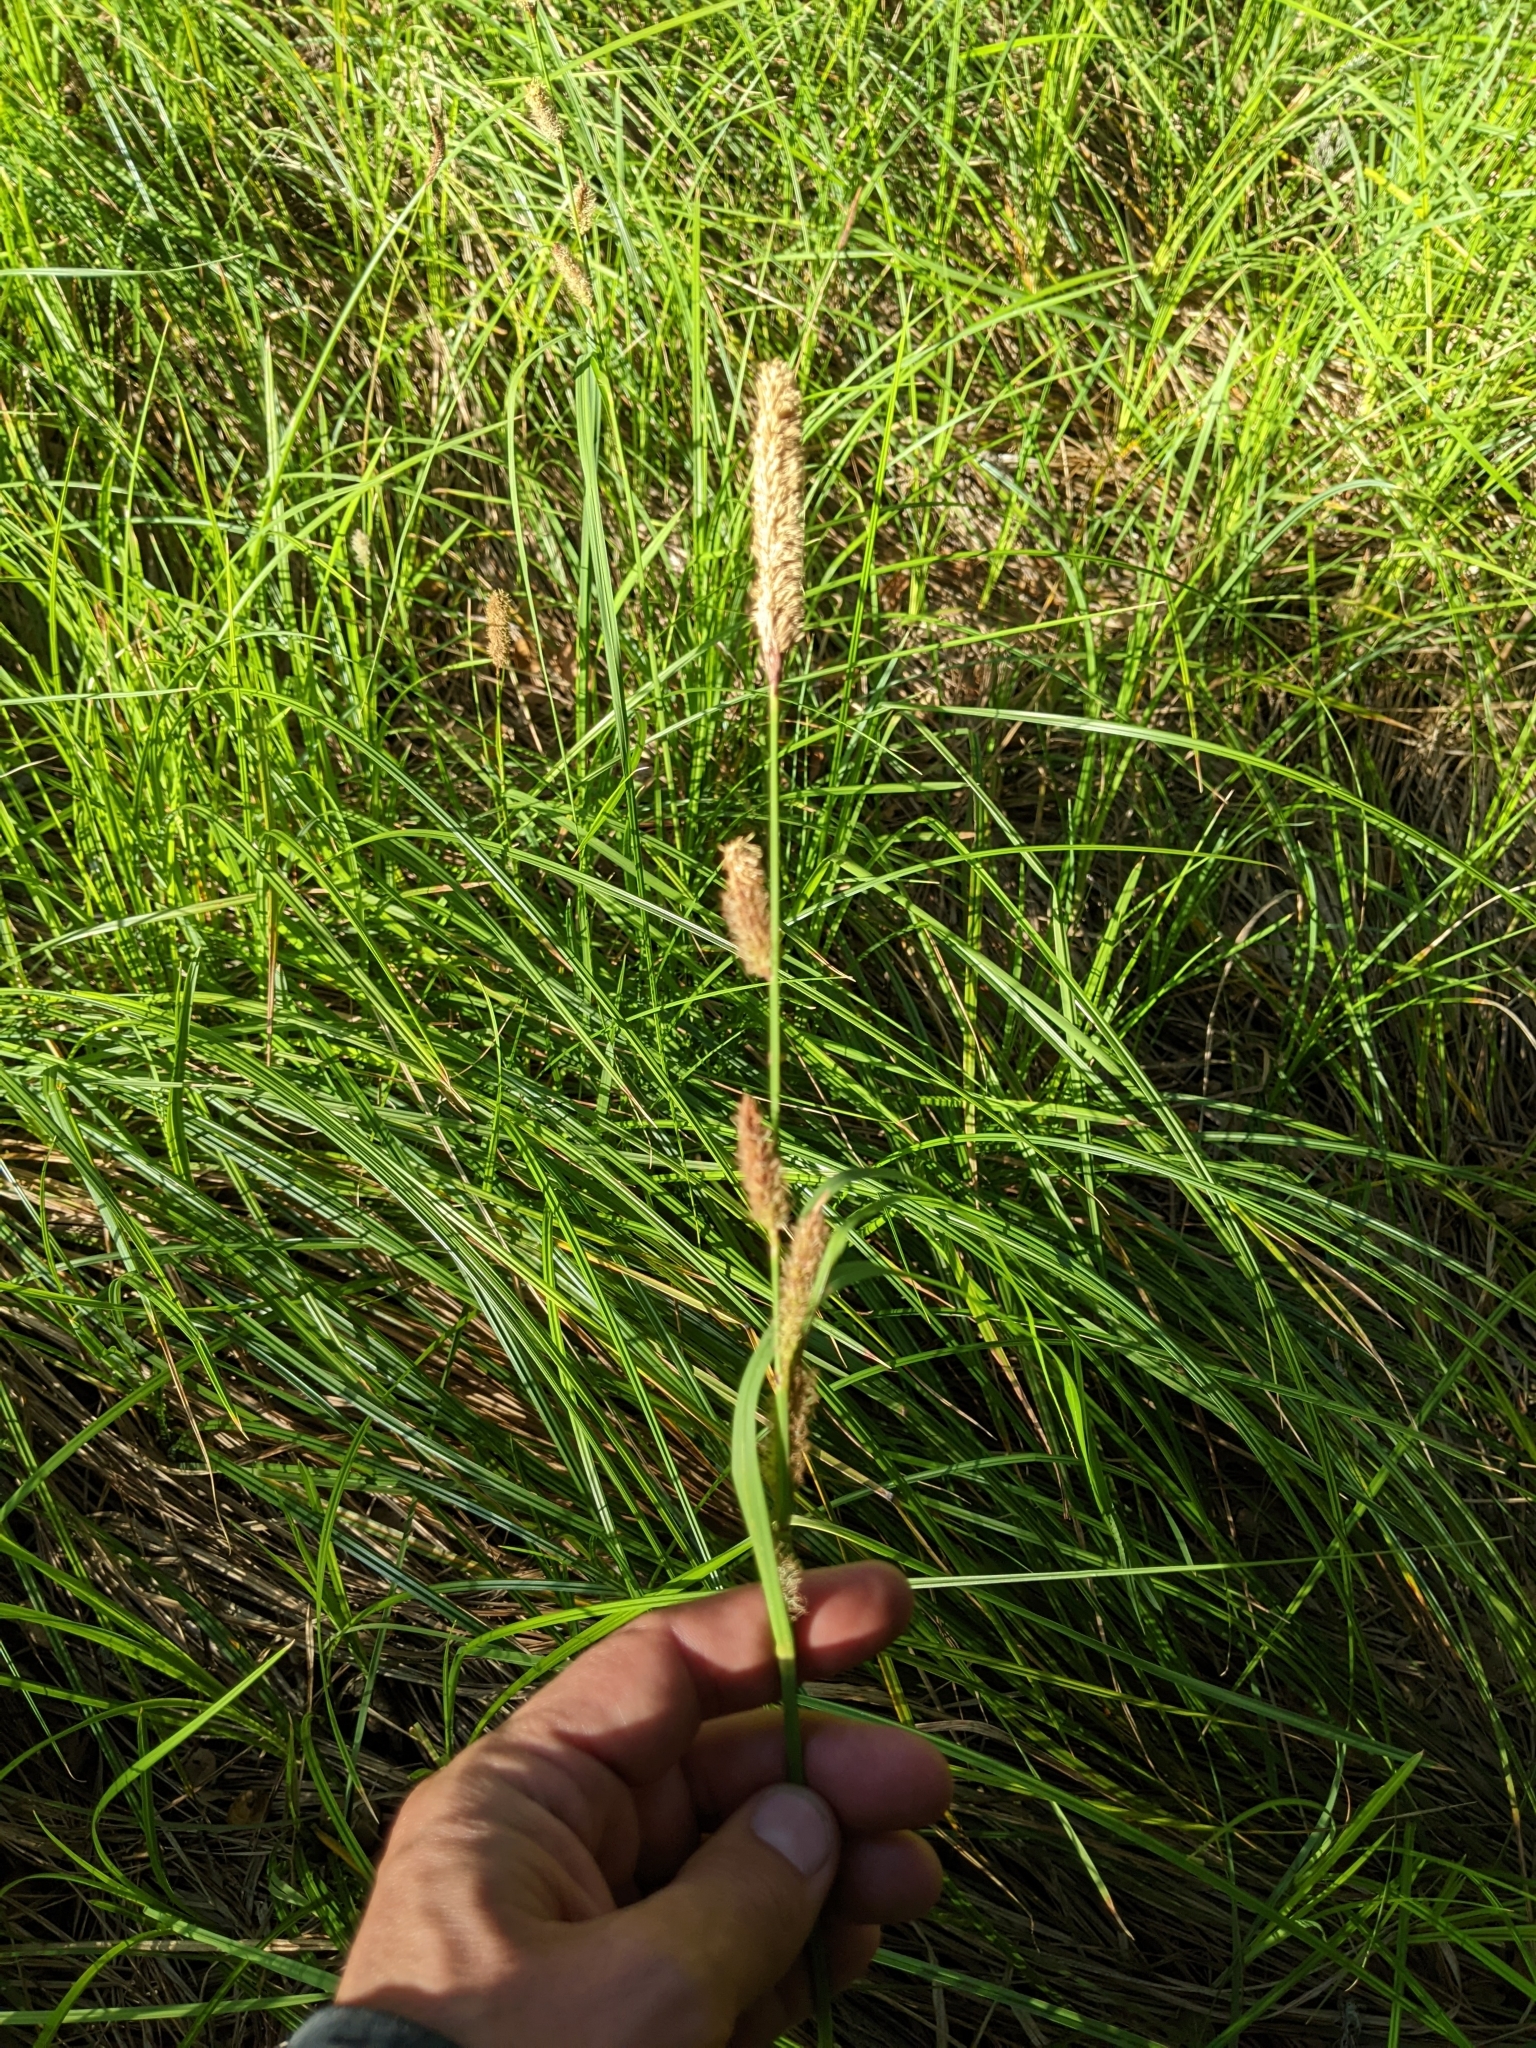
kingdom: Plantae
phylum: Tracheophyta
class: Liliopsida
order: Poales
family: Cyperaceae
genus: Carex
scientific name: Carex barbarae
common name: Santa barbara sedge
